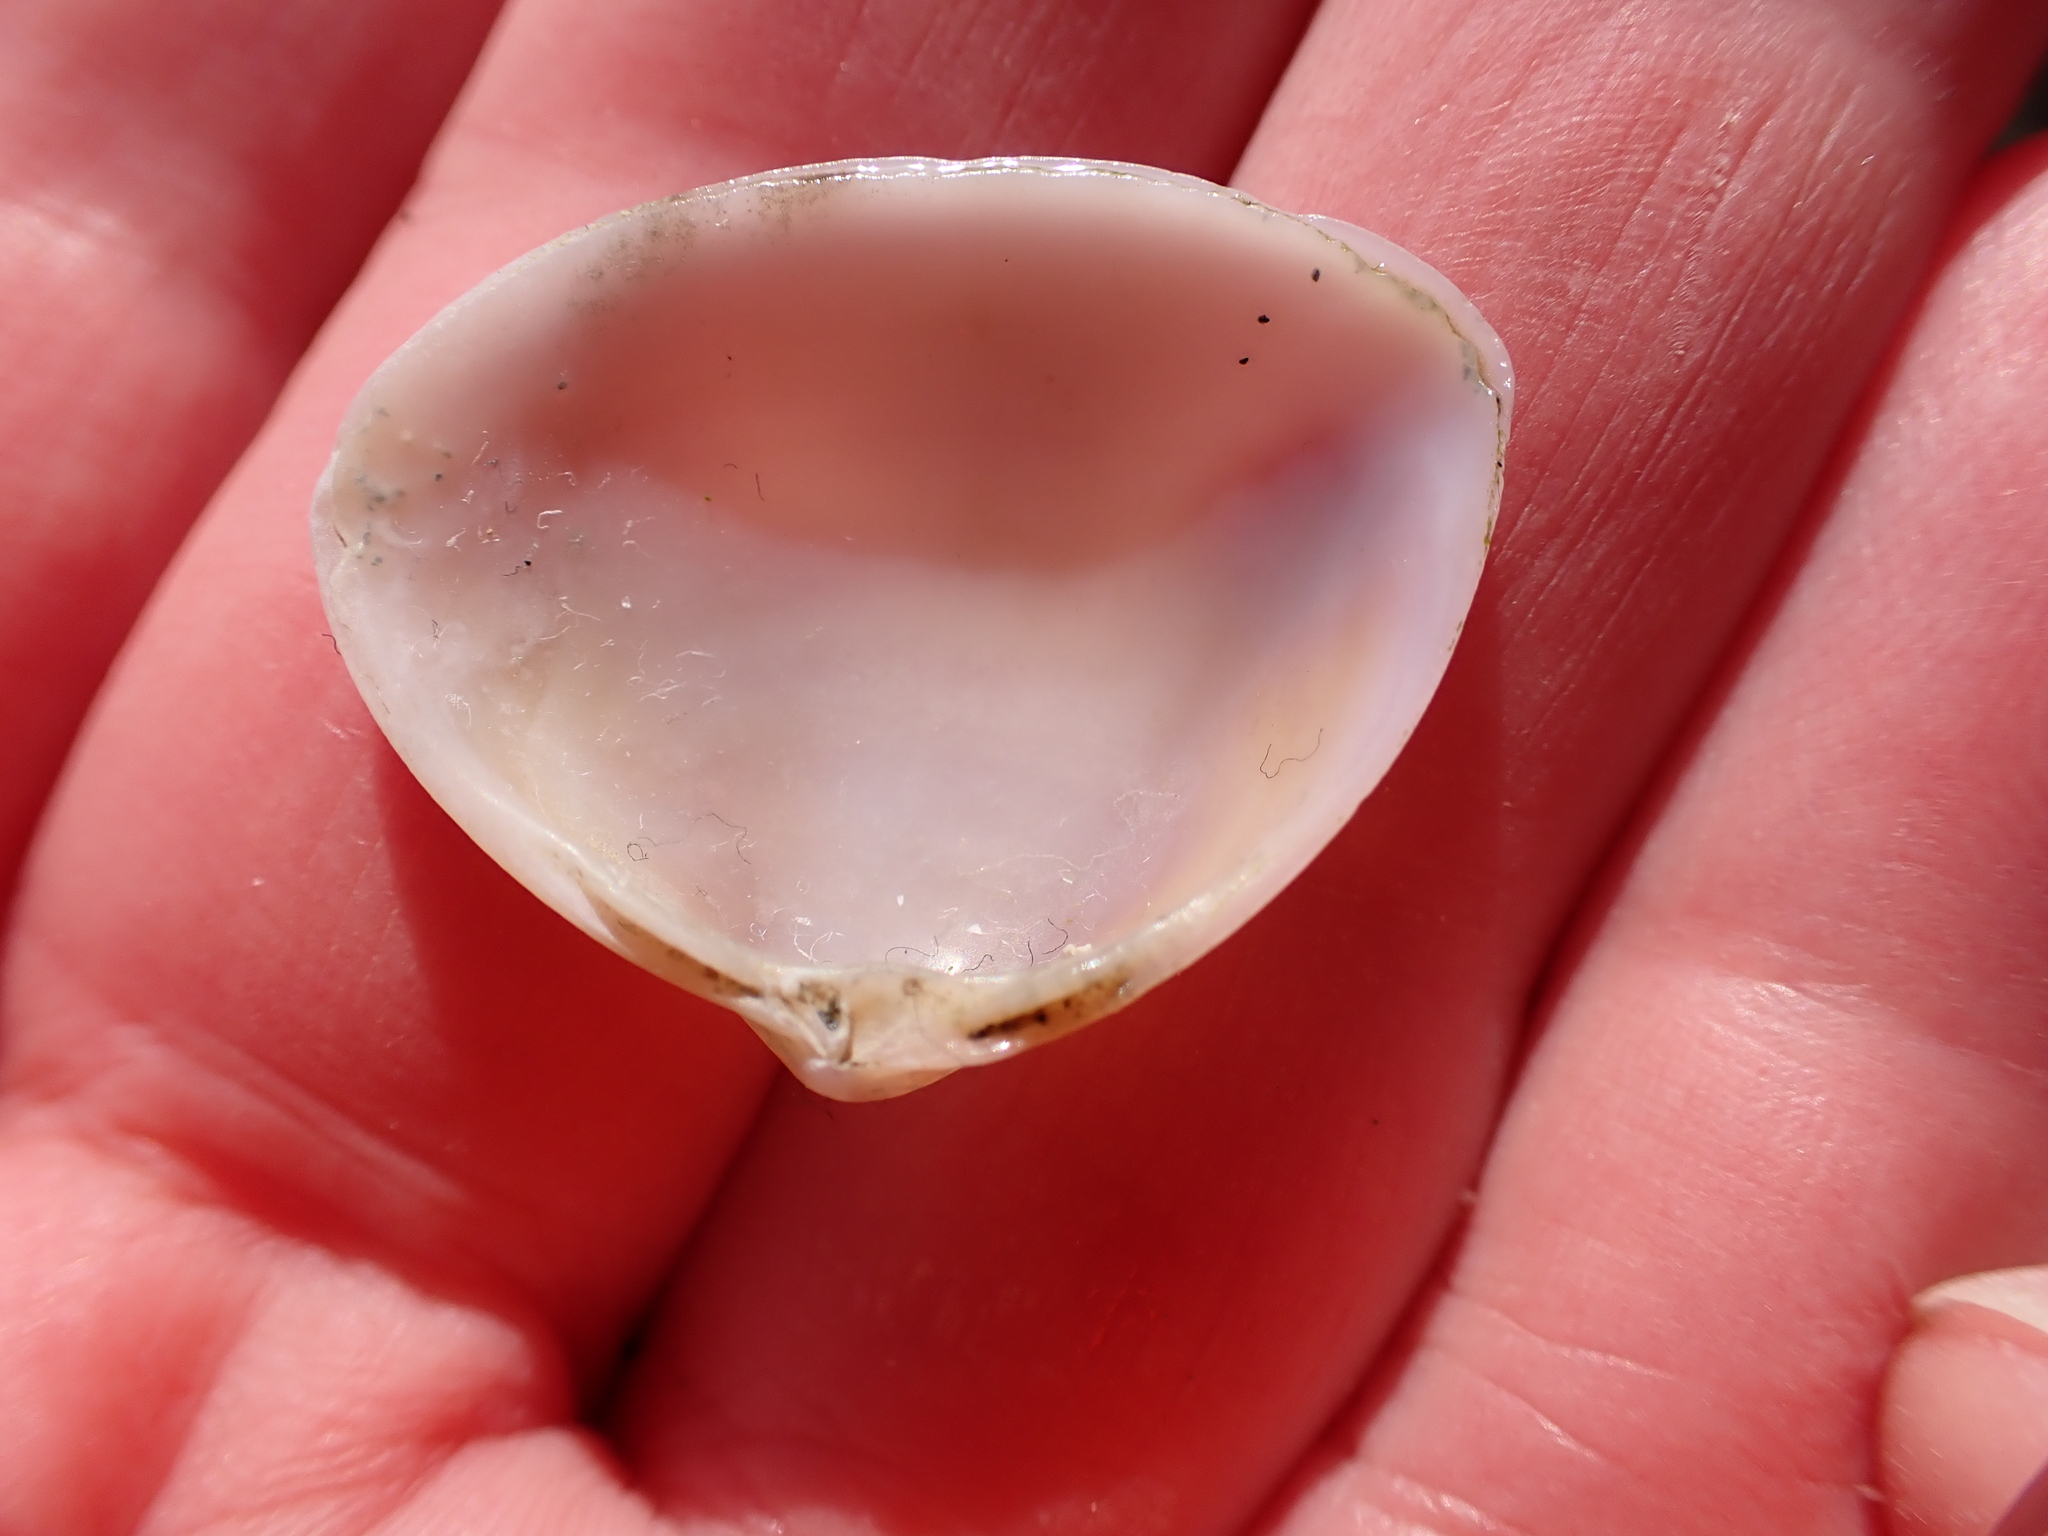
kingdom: Animalia
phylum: Mollusca
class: Bivalvia
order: Venerida
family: Mactridae
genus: Crassula
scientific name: Crassula aequilatera
